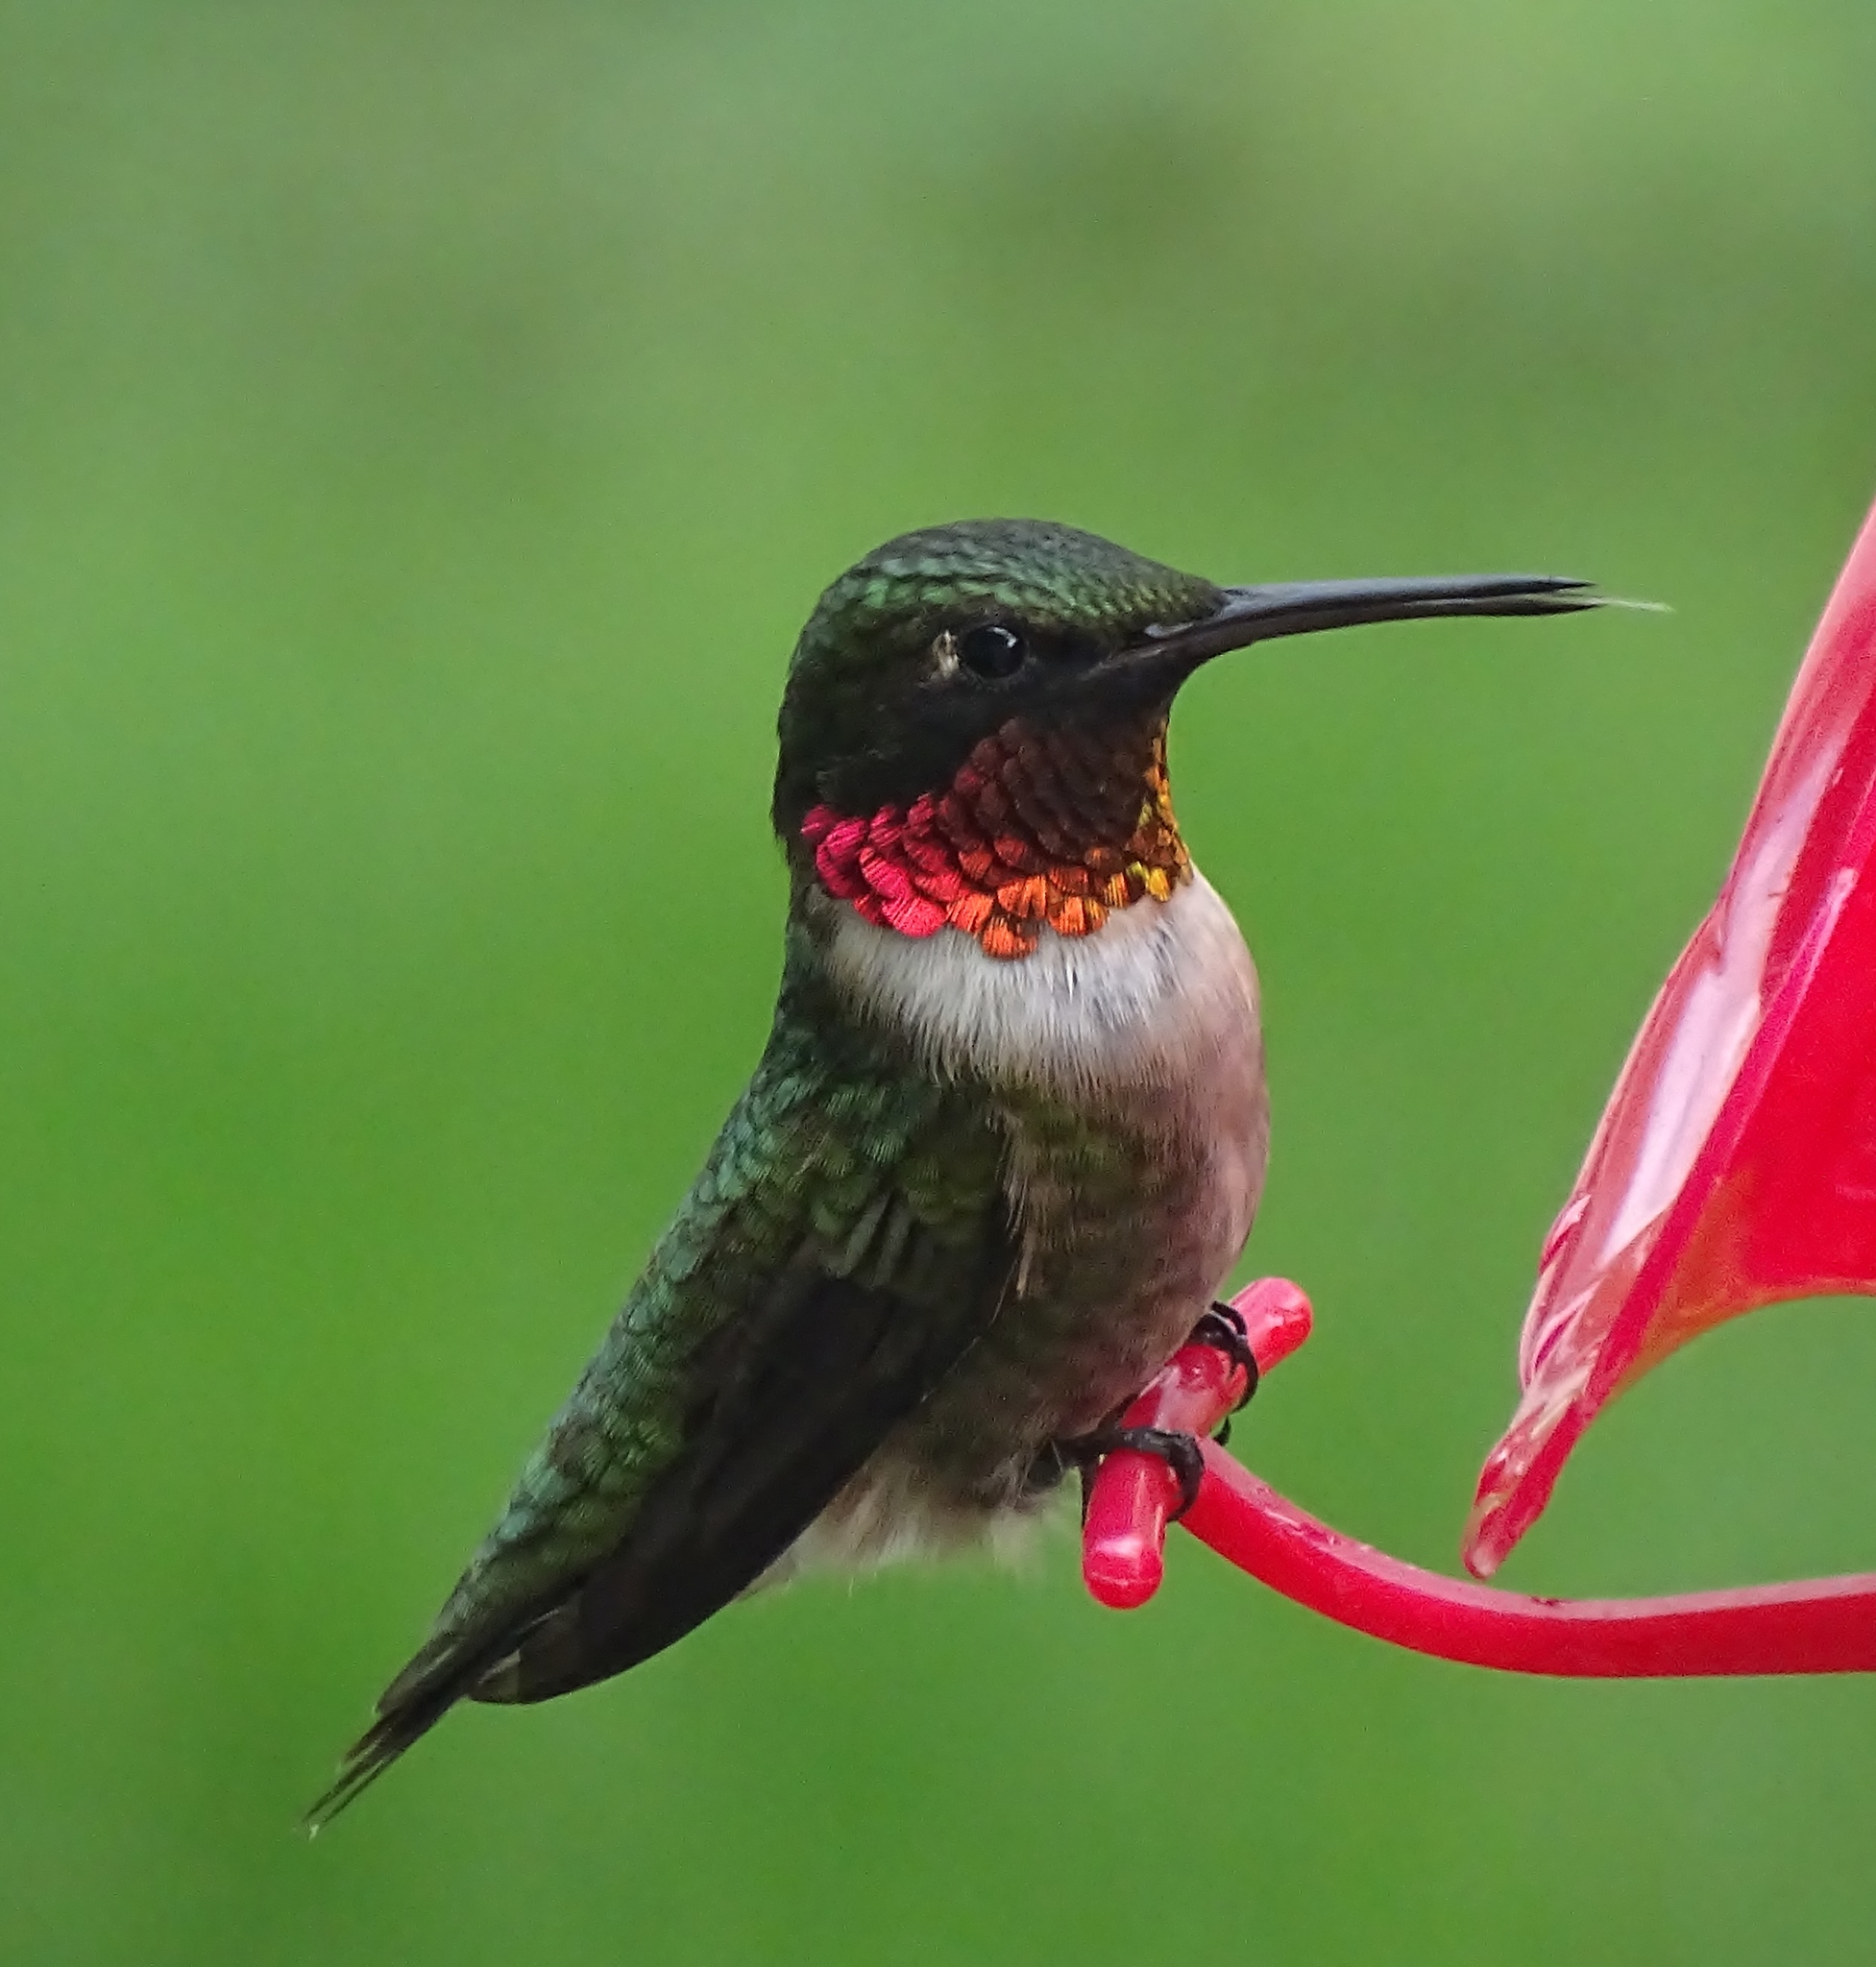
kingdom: Animalia
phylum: Chordata
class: Aves
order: Apodiformes
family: Trochilidae
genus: Archilochus
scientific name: Archilochus colubris
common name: Ruby-throated hummingbird
